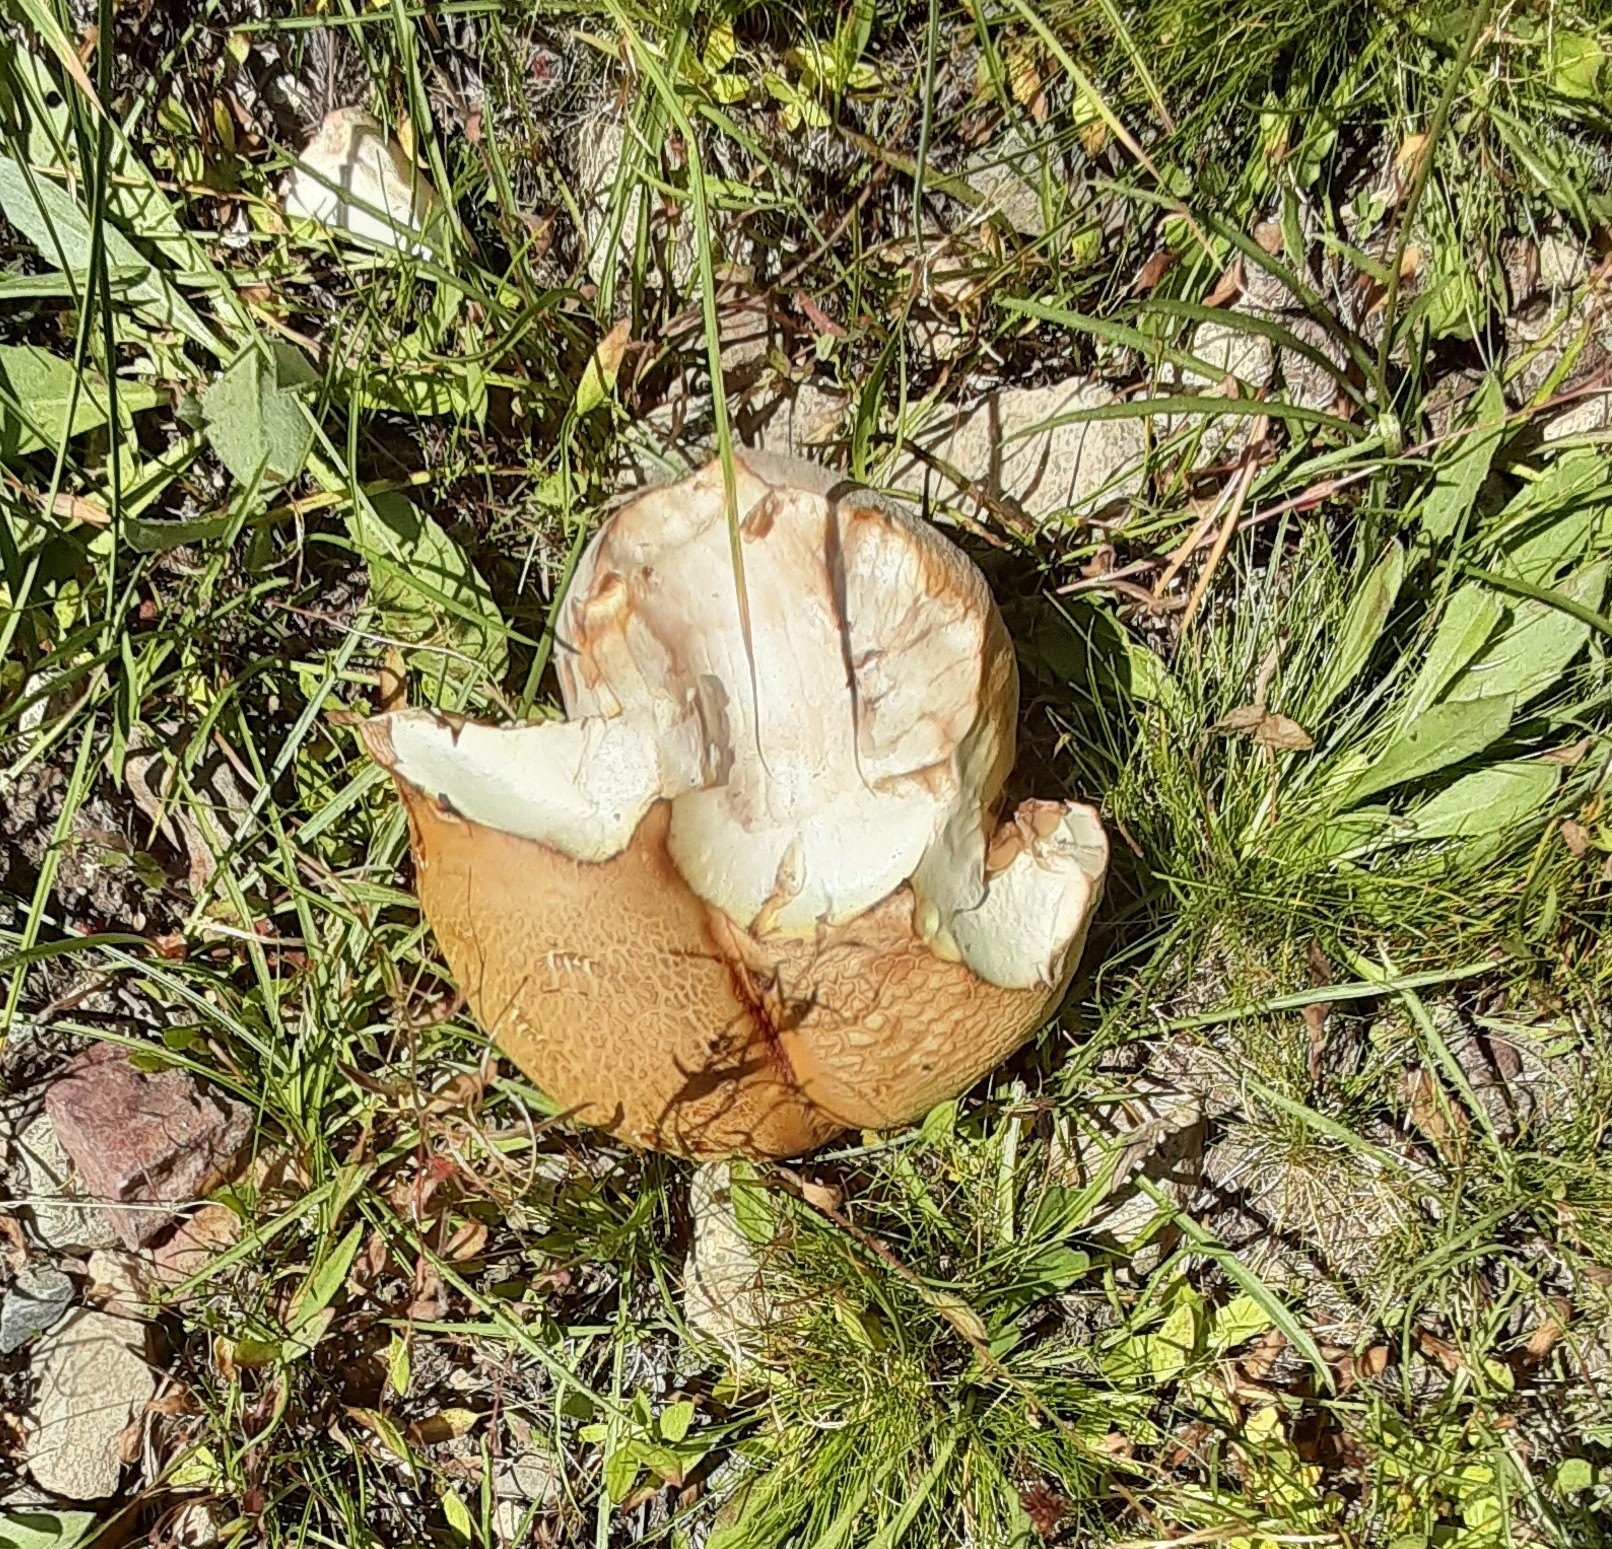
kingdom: Fungi
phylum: Basidiomycota
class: Agaricomycetes
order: Boletales
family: Boletaceae
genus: Boletus
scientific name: Boletus edulis
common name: Cep
